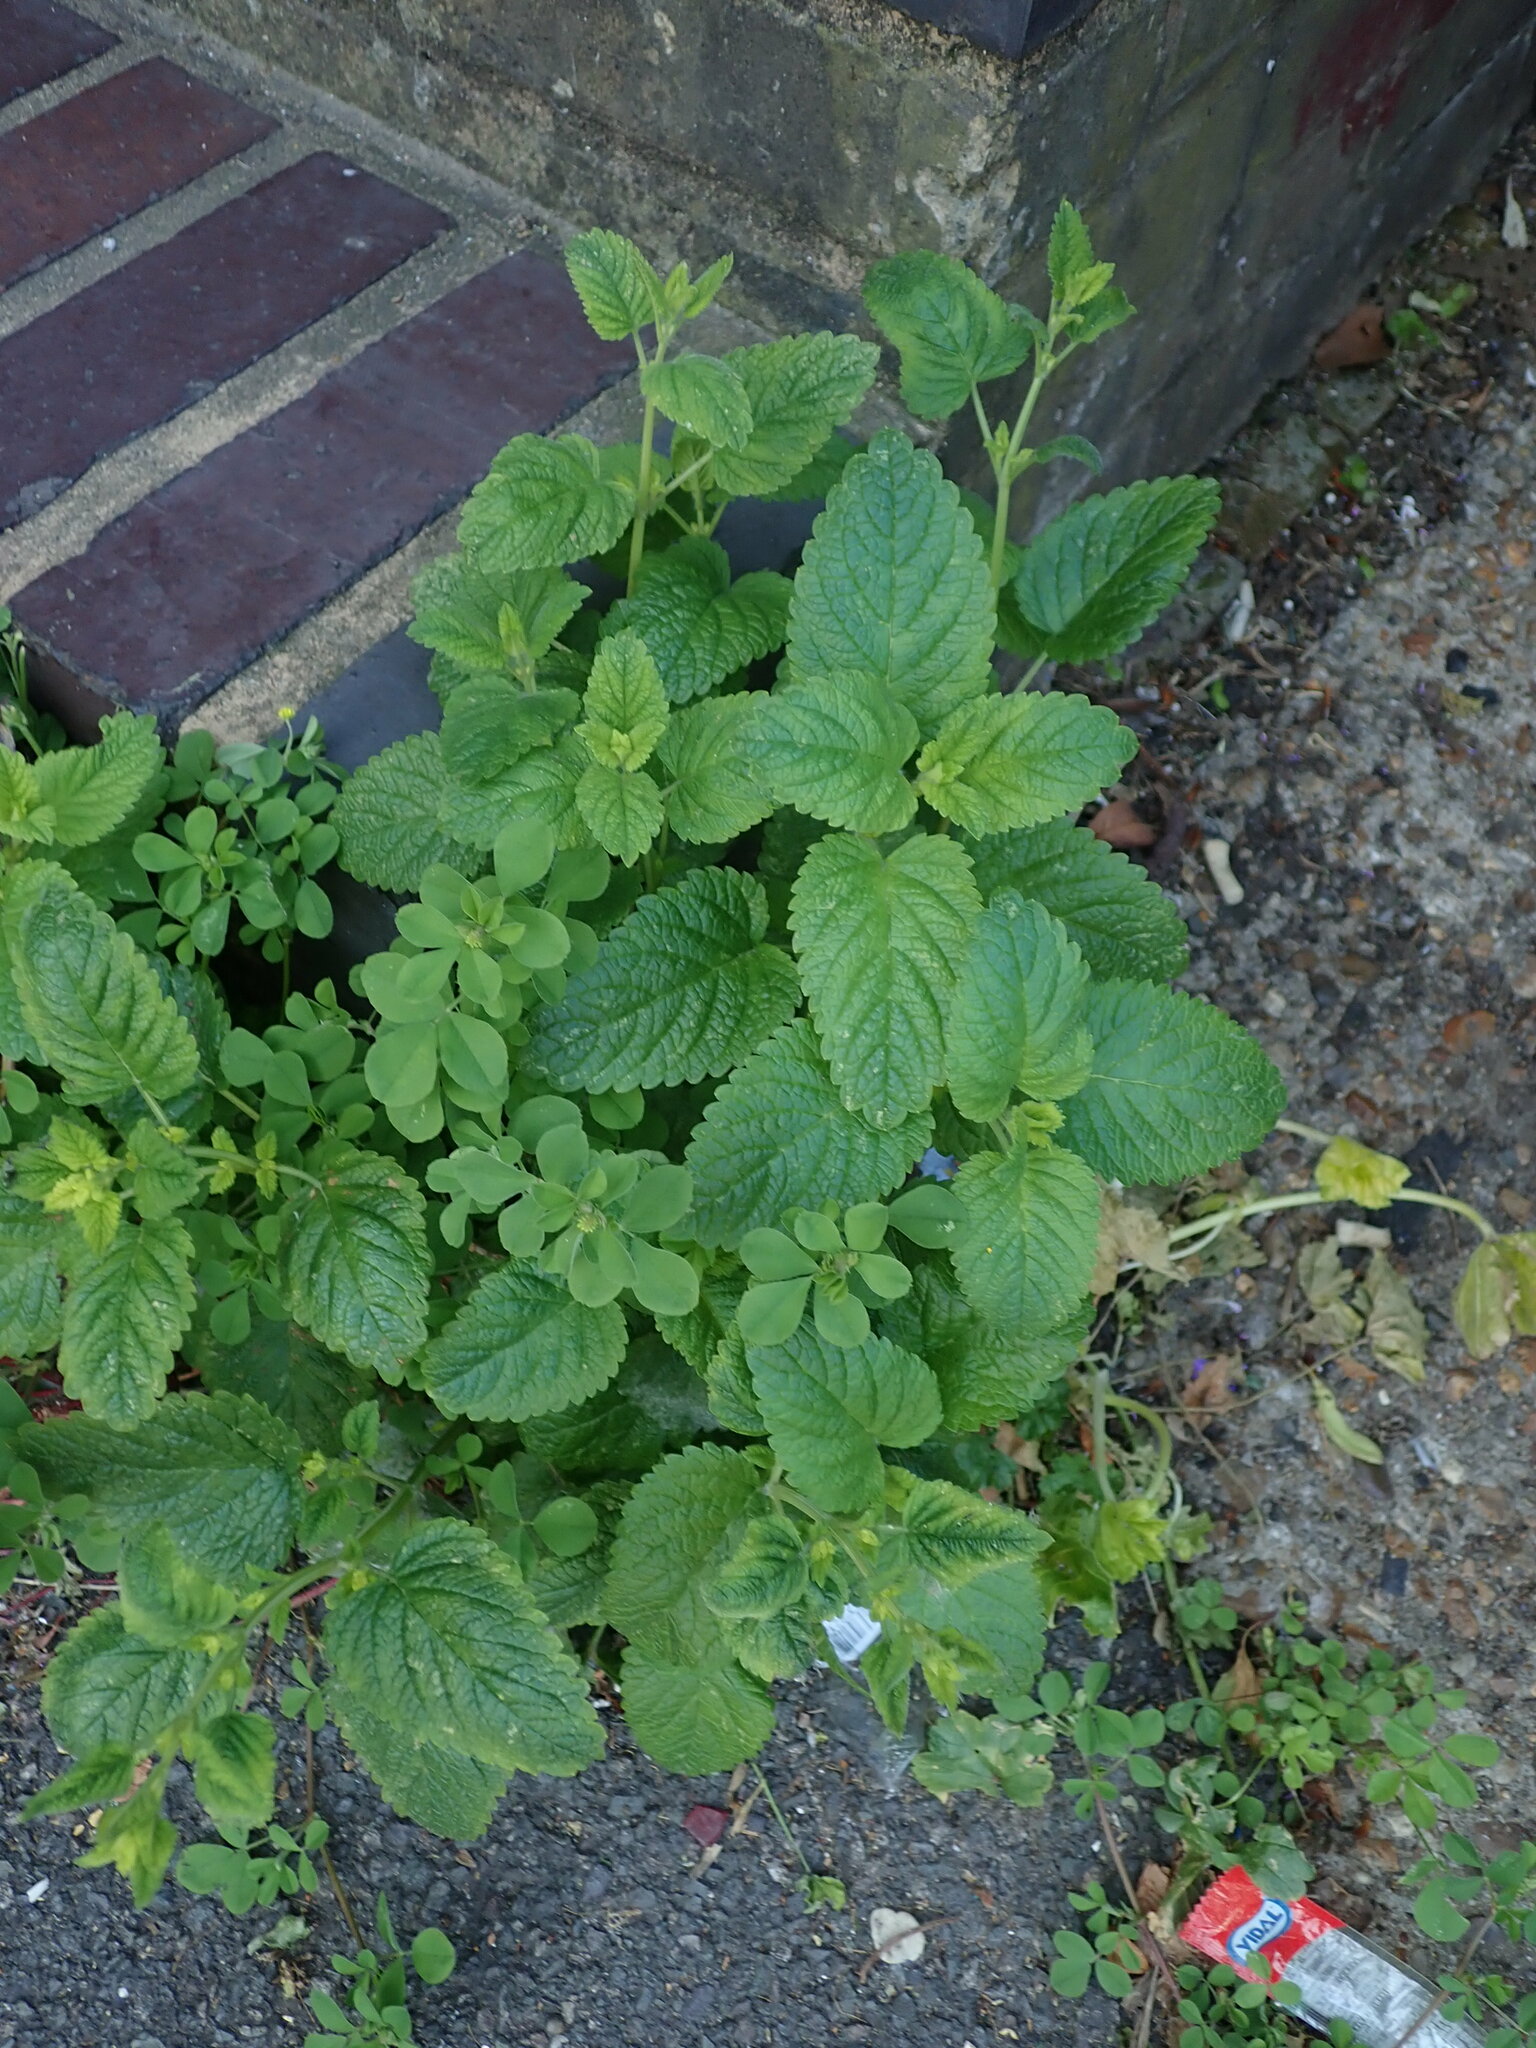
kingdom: Plantae
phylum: Tracheophyta
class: Magnoliopsida
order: Lamiales
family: Lamiaceae
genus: Melissa
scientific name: Melissa officinalis
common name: Balm
